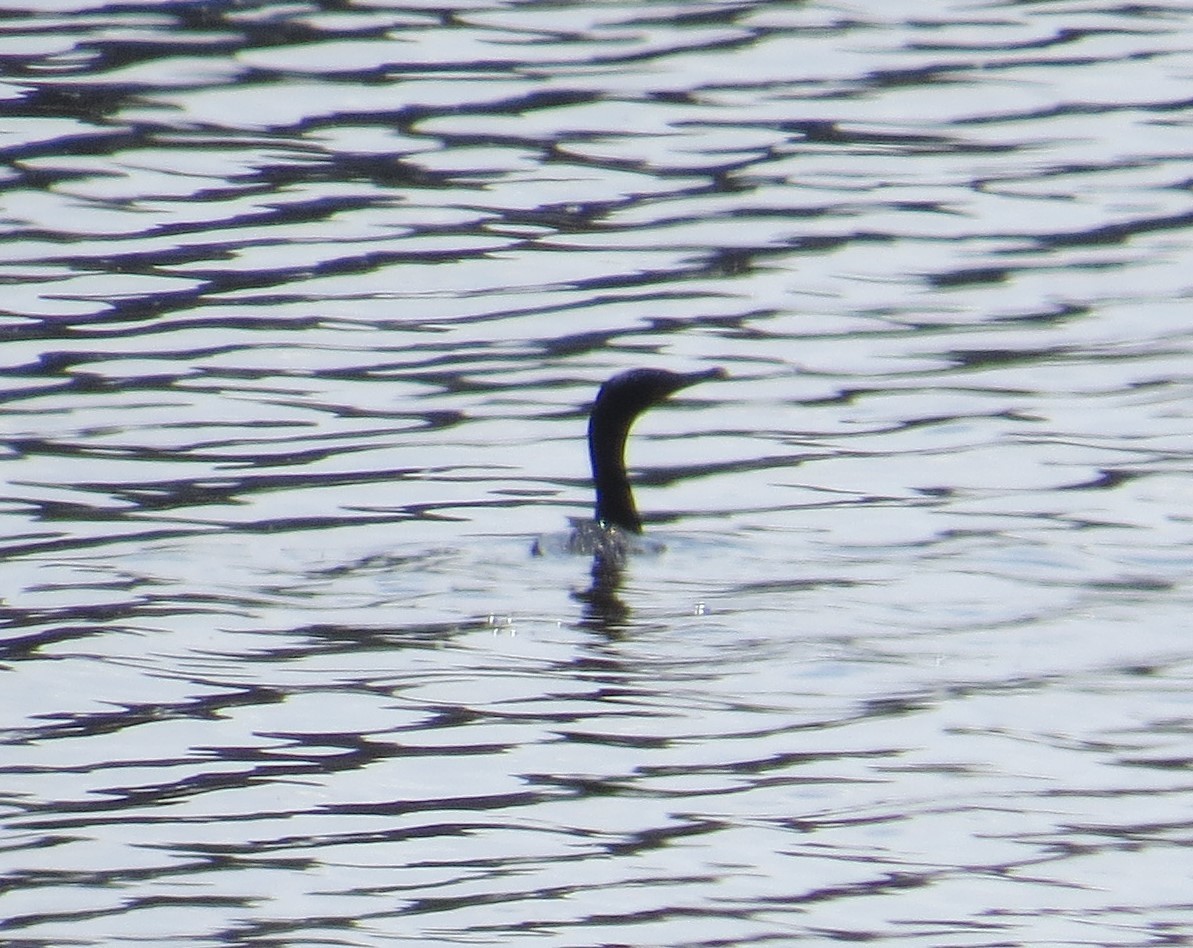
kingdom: Animalia
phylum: Chordata
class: Aves
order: Suliformes
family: Phalacrocoracidae
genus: Phalacrocorax
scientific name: Phalacrocorax auritus
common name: Double-crested cormorant
